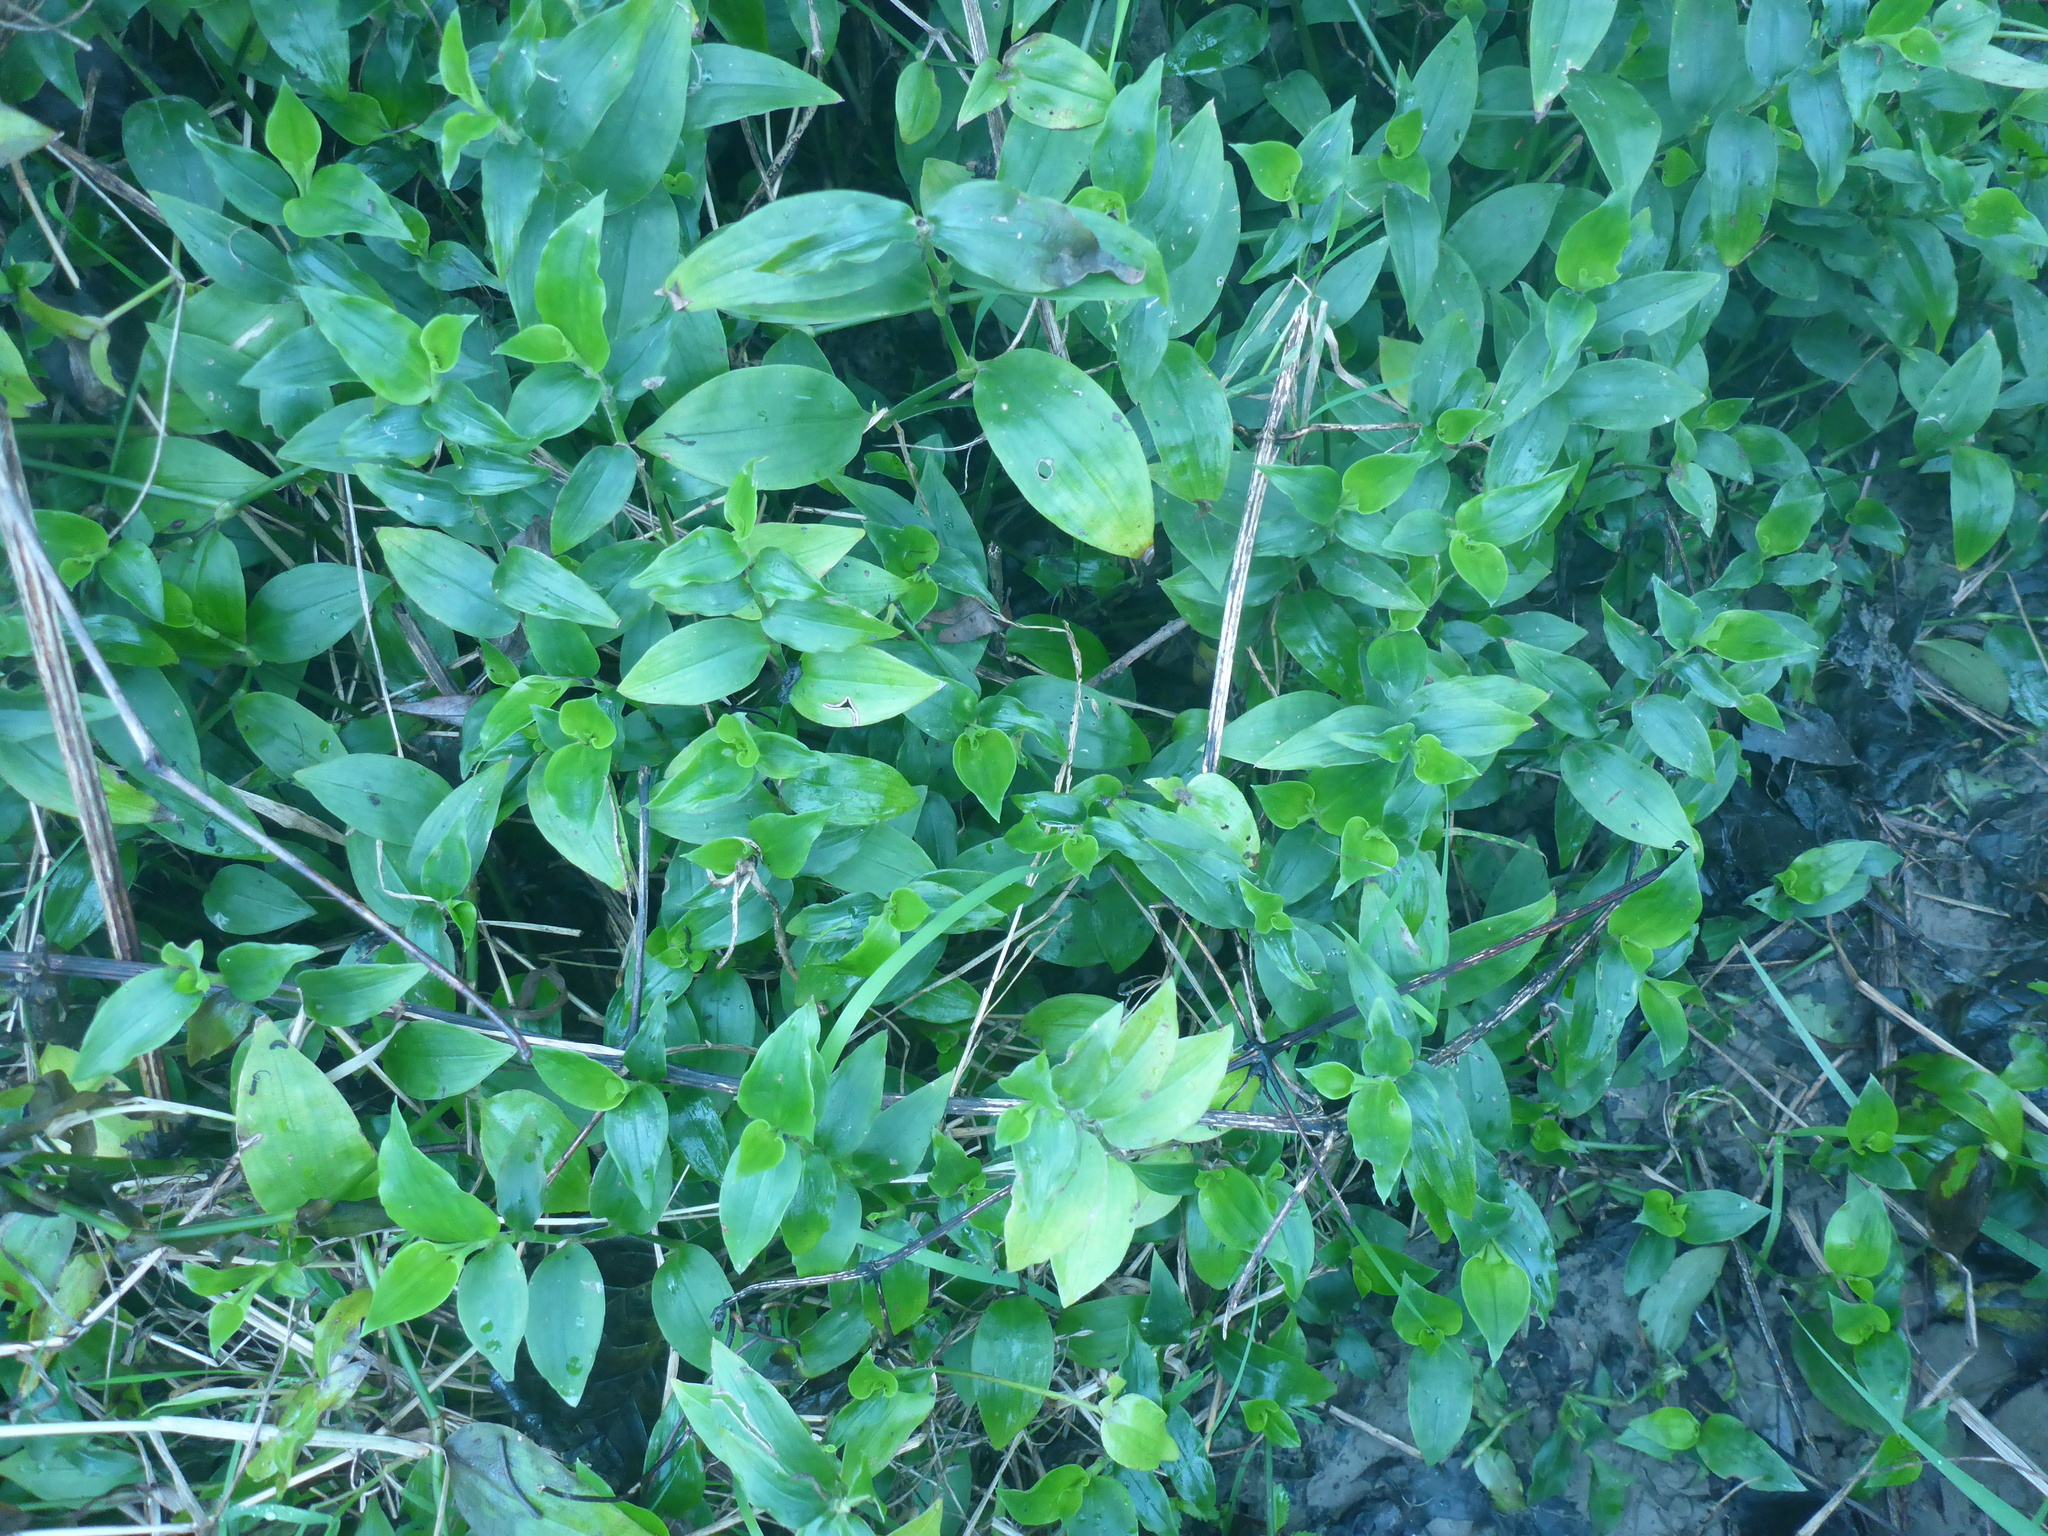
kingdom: Plantae
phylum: Tracheophyta
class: Liliopsida
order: Commelinales
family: Commelinaceae
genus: Tradescantia
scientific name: Tradescantia fluminensis
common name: Wandering-jew
